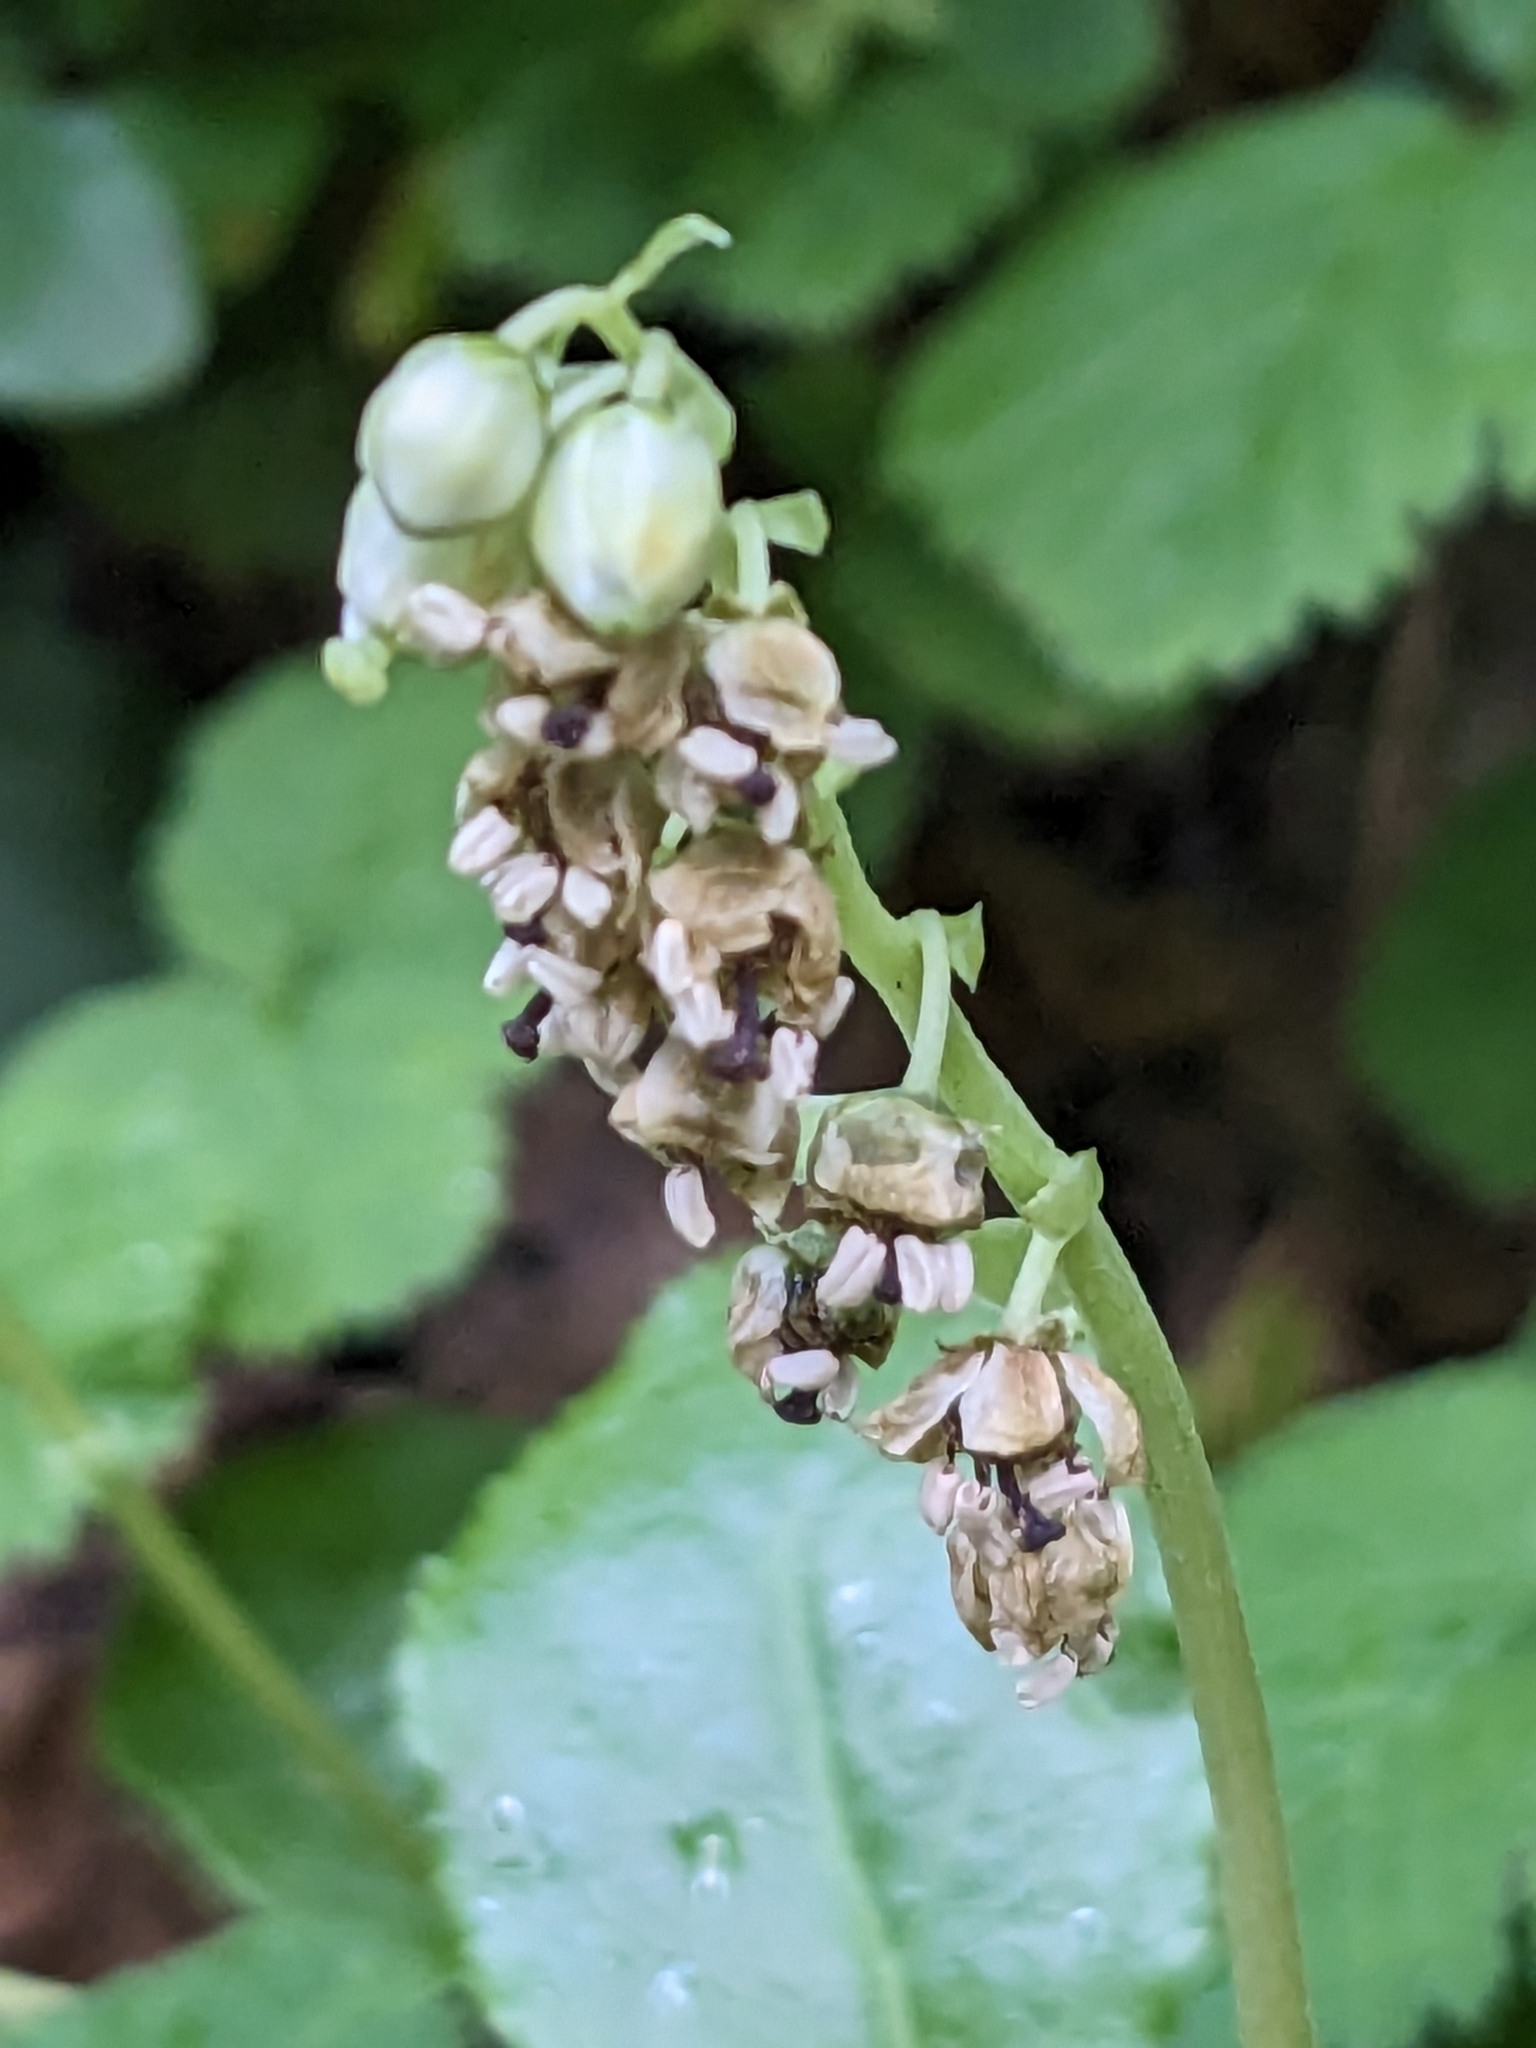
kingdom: Plantae
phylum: Tracheophyta
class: Magnoliopsida
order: Ericales
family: Ericaceae
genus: Orthilia
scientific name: Orthilia secunda
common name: One-sided orthilia
